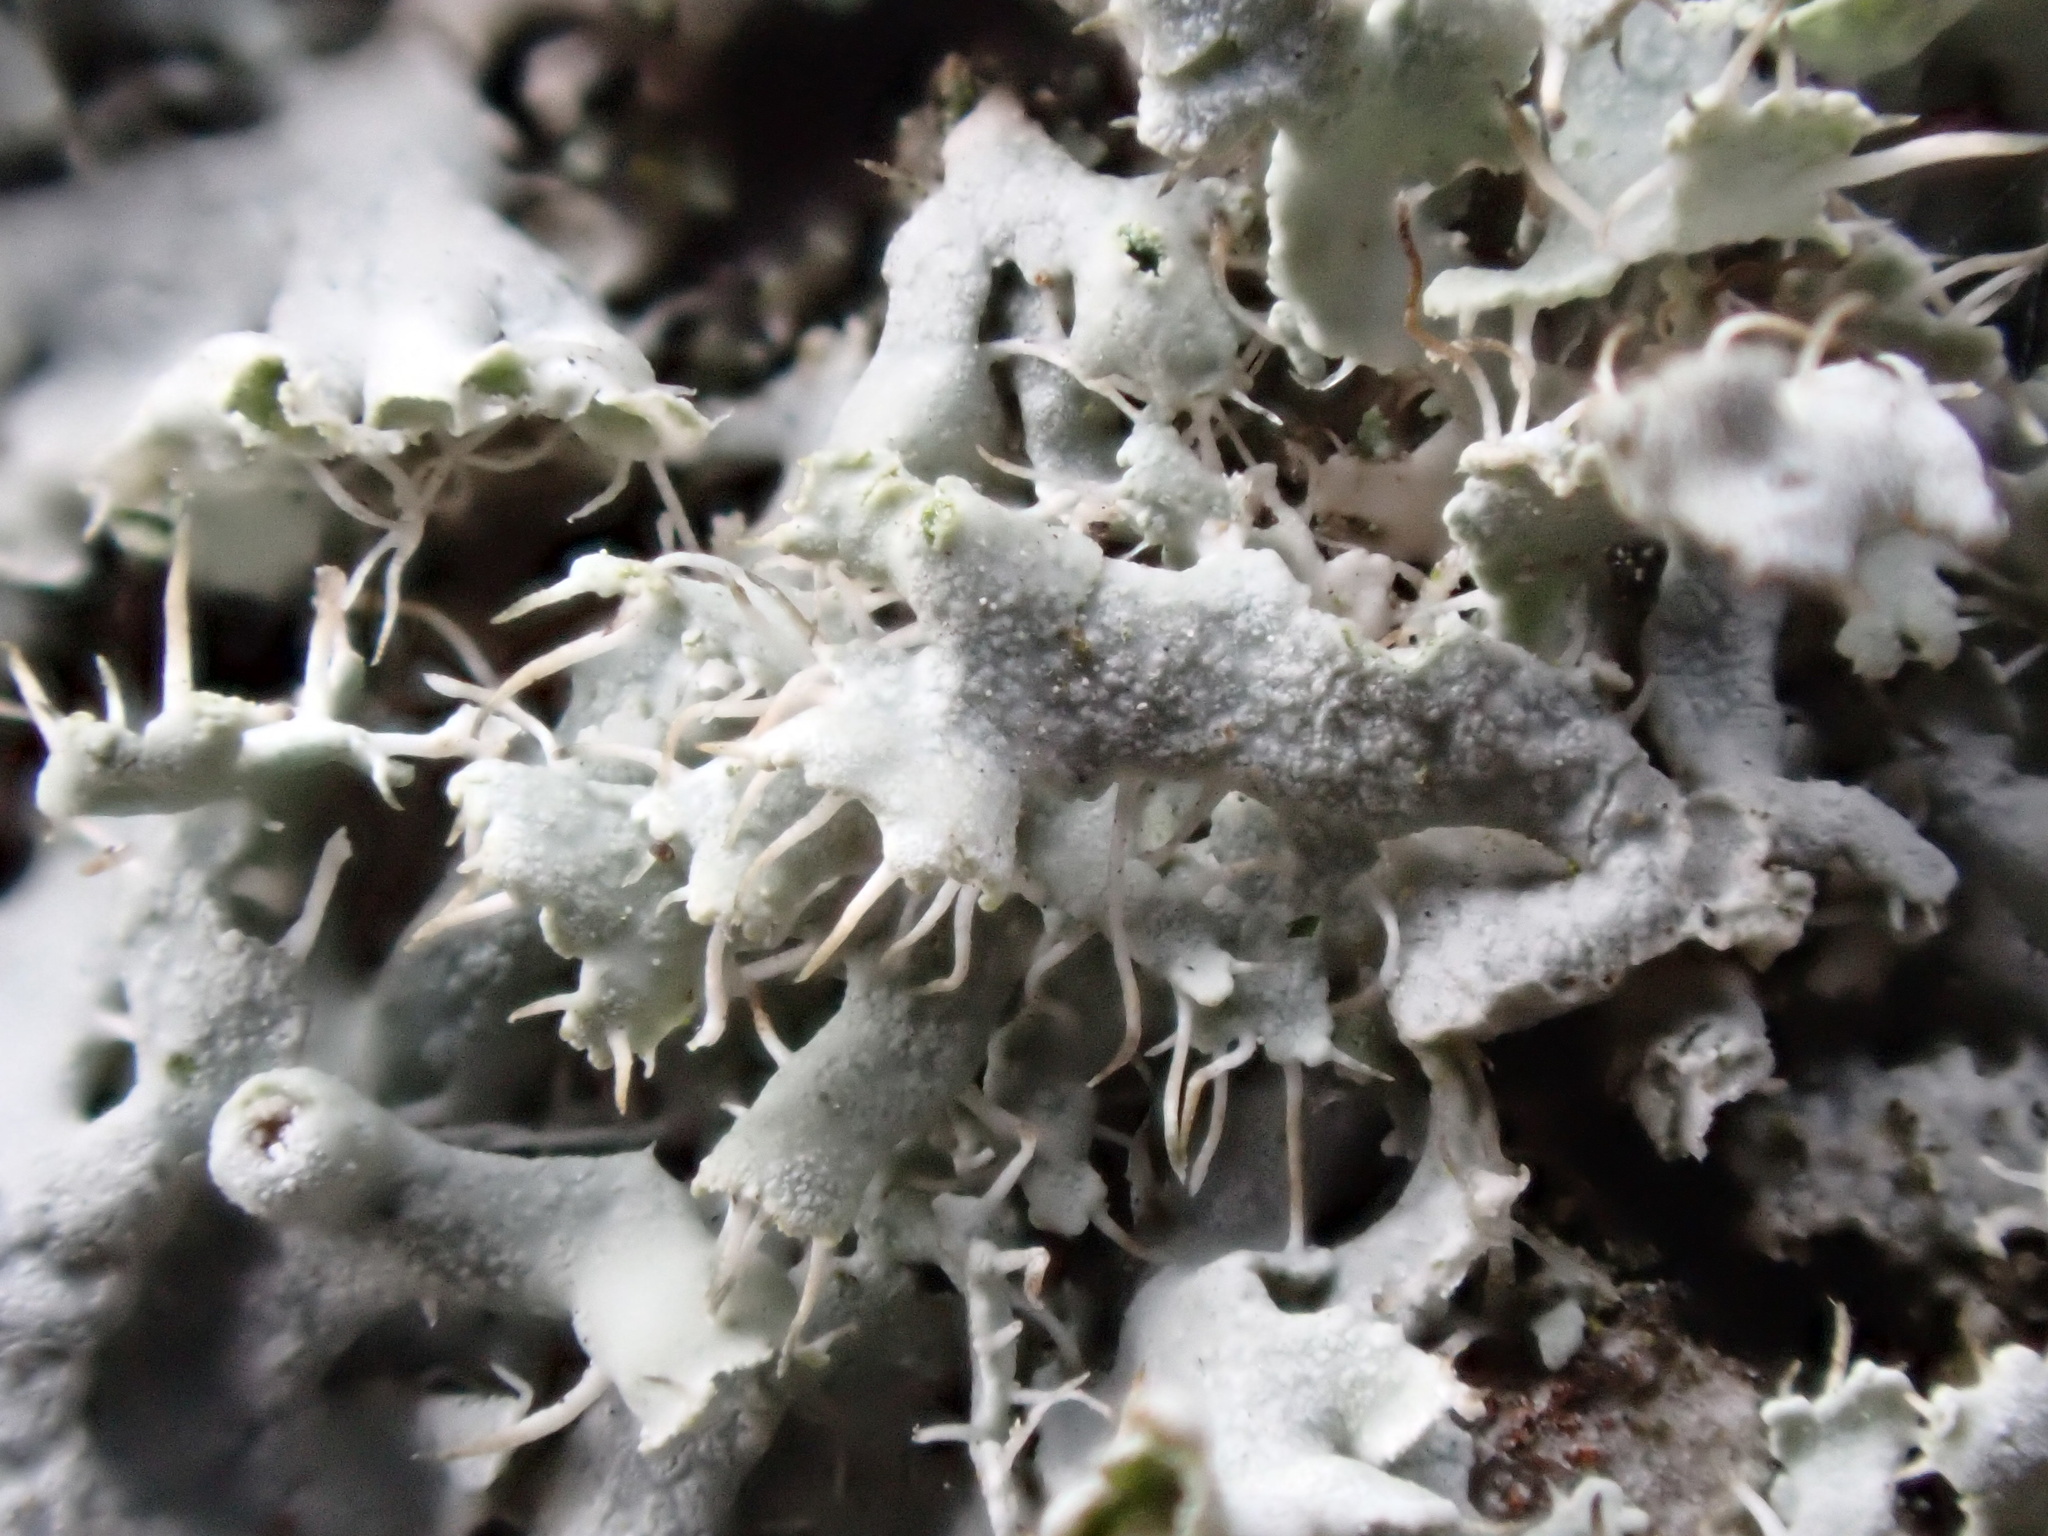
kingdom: Fungi
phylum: Ascomycota
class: Lecanoromycetes
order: Caliciales
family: Physciaceae
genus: Physcia
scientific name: Physcia adscendens
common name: Hooded rosette lichen
